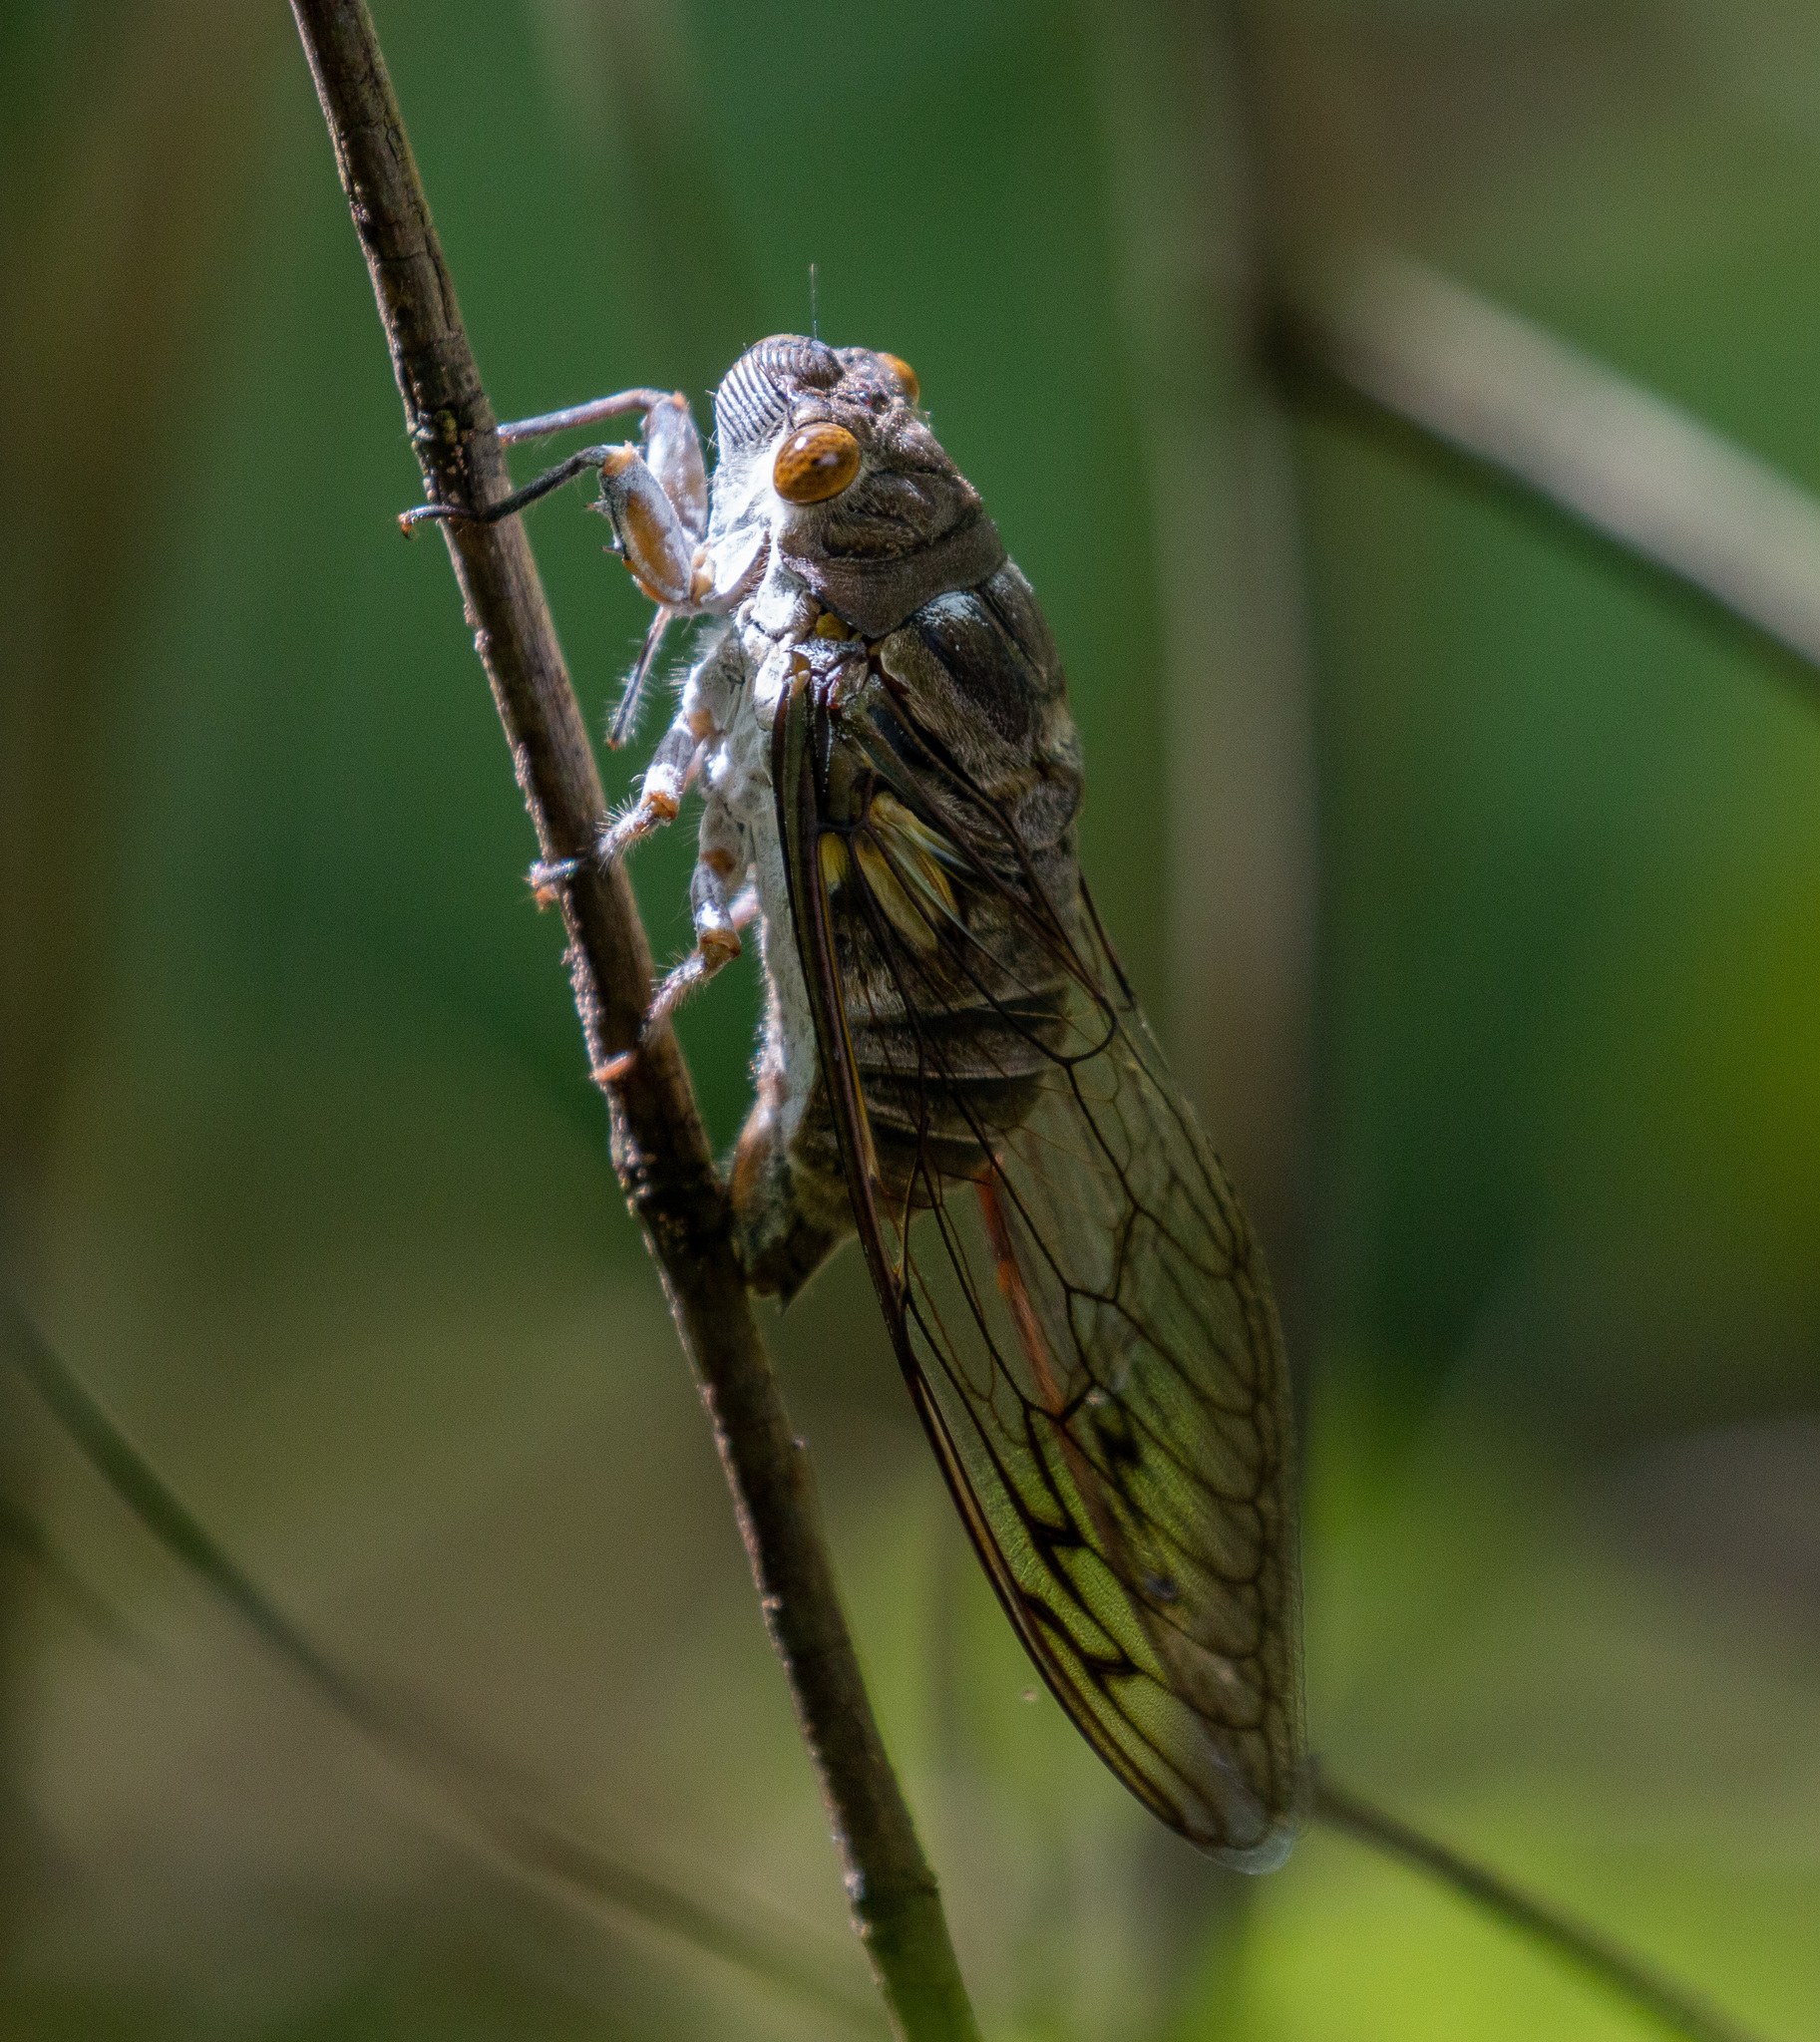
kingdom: Animalia
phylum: Arthropoda
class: Insecta
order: Hemiptera
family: Cicadidae
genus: Quesada
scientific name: Quesada gigas
